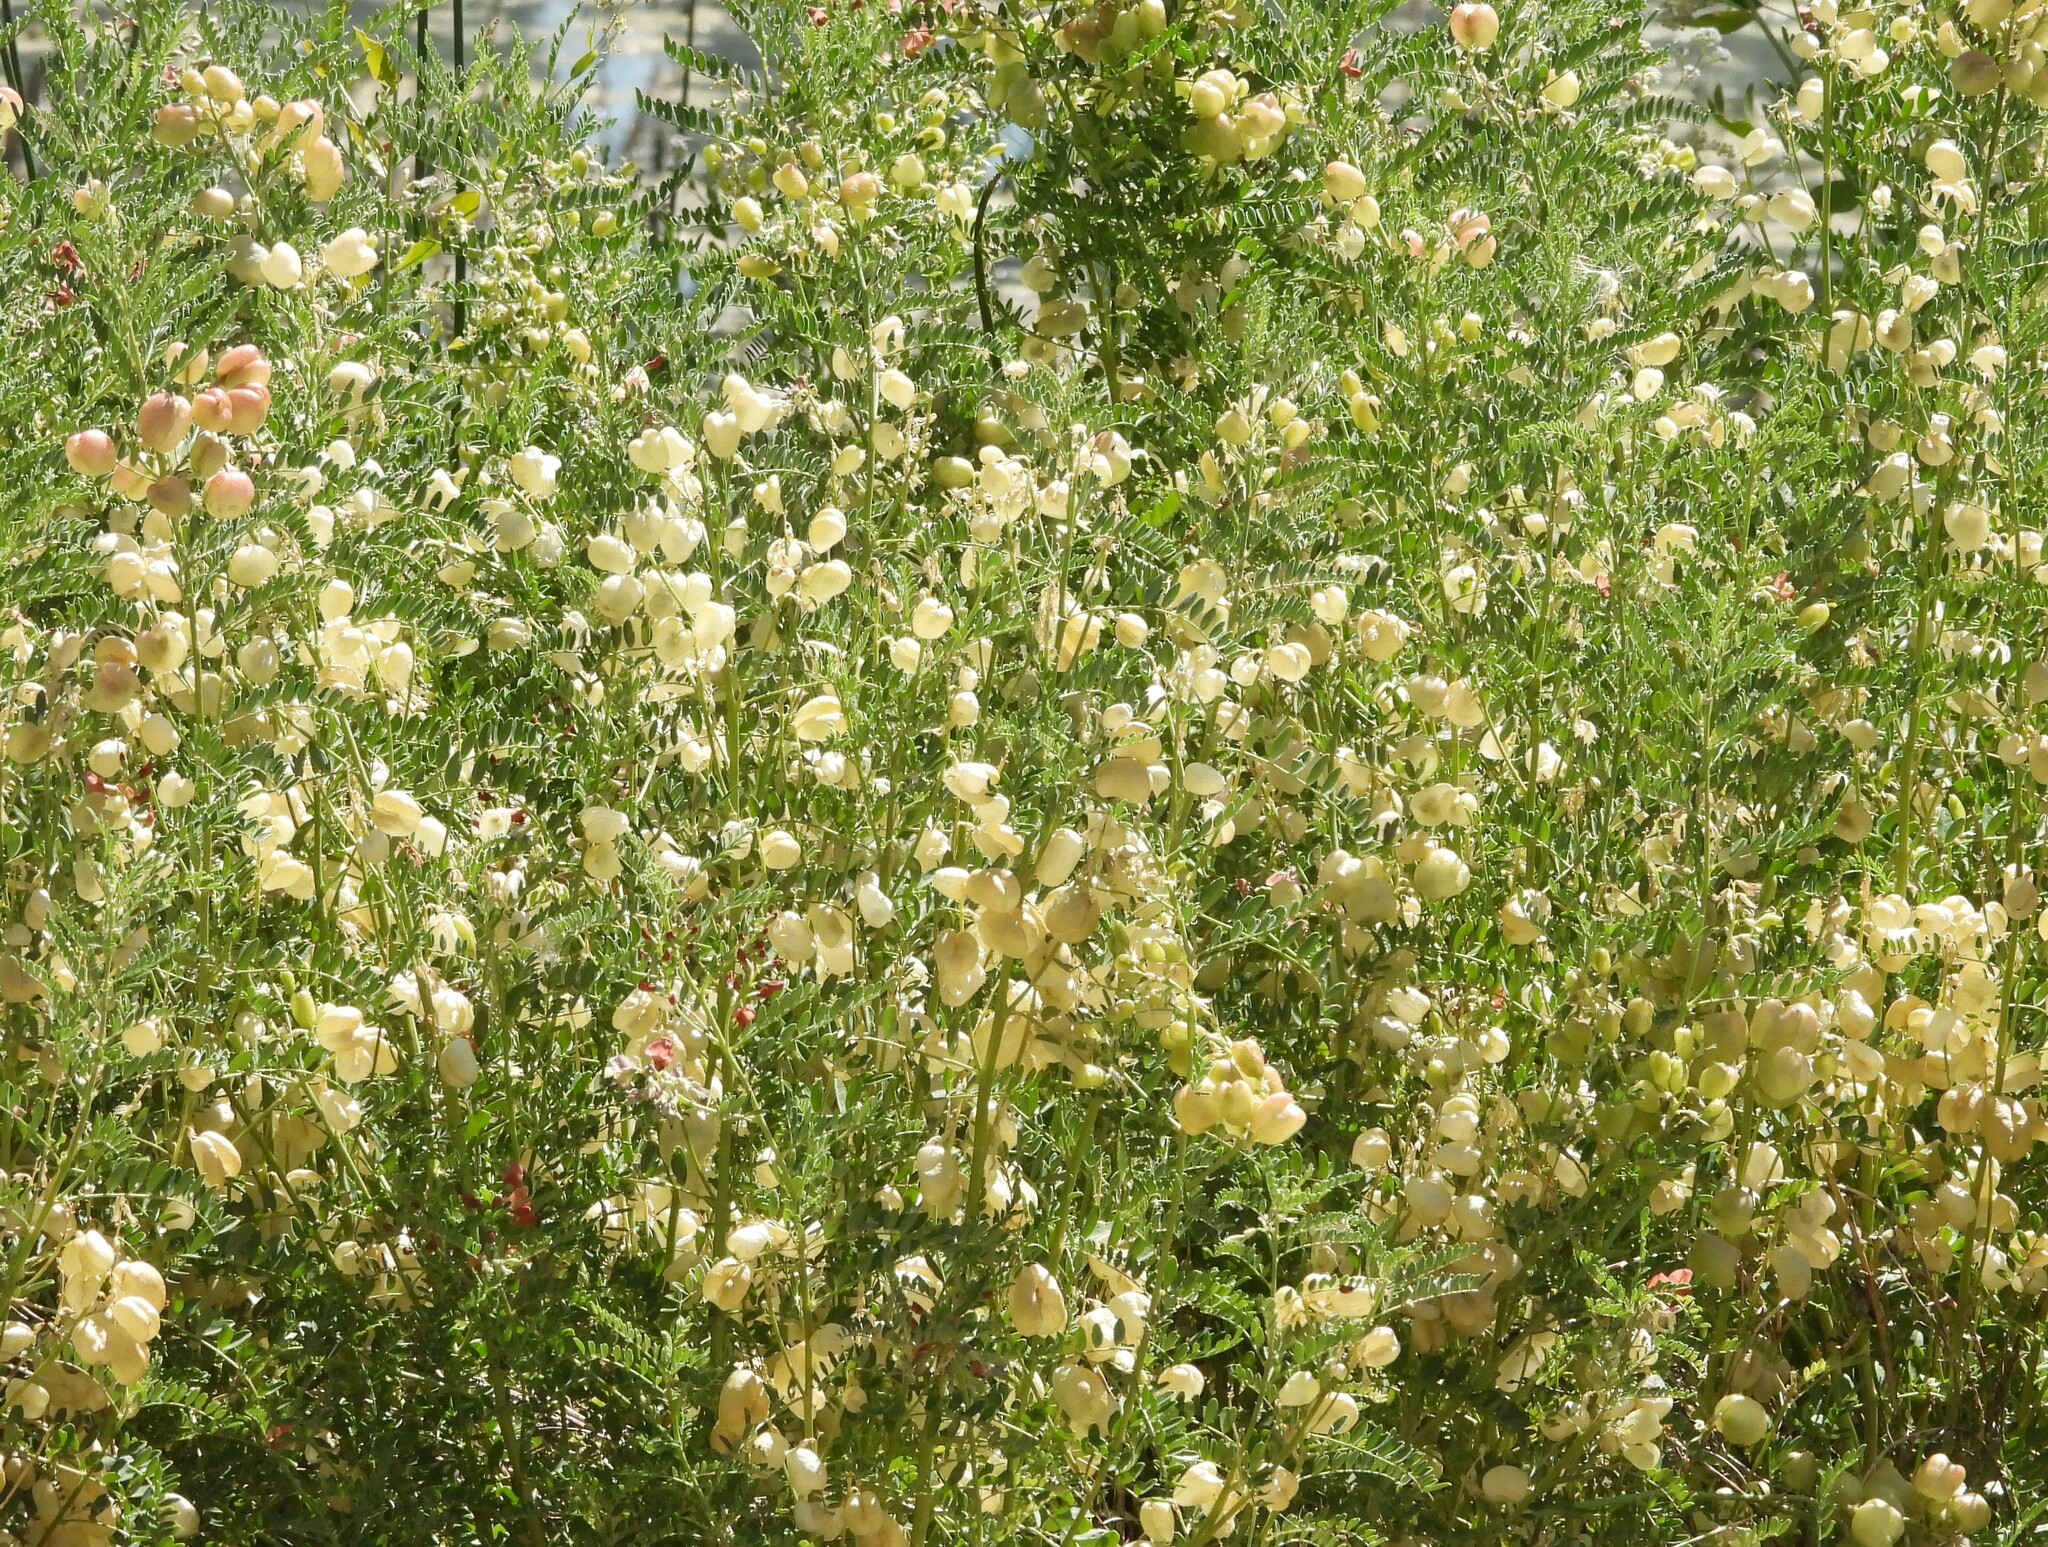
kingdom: Plantae
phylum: Tracheophyta
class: Magnoliopsida
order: Fabales
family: Fabaceae
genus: Sphaerophysa
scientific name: Sphaerophysa salsula
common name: Alkali swainsonpea
